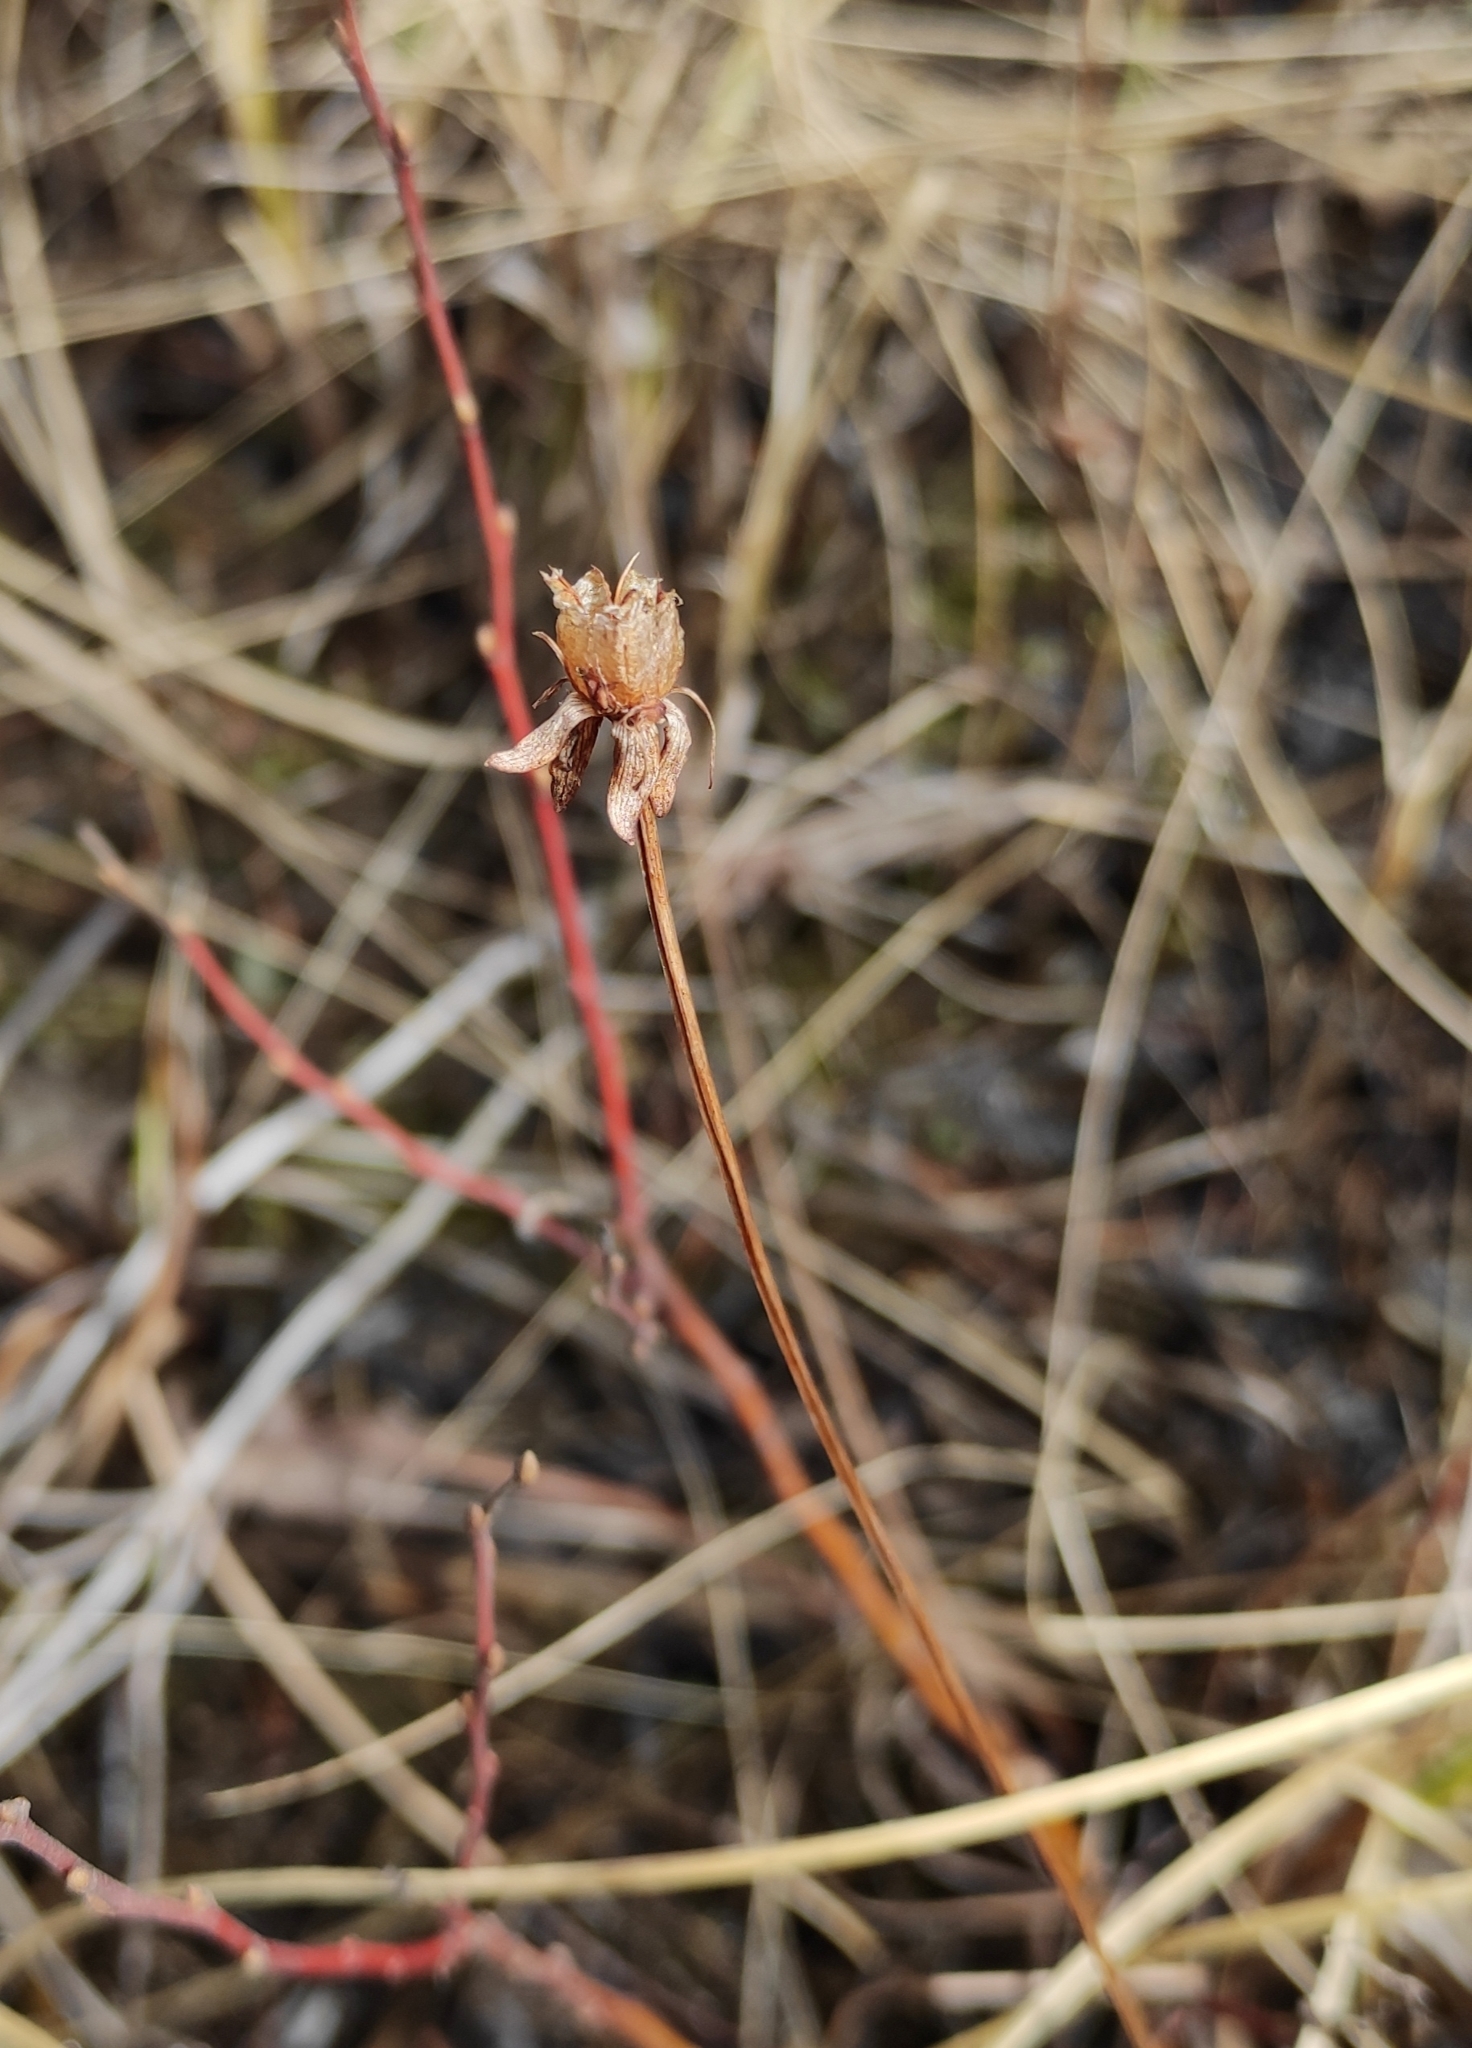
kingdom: Plantae
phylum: Tracheophyta
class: Magnoliopsida
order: Celastrales
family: Parnassiaceae
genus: Parnassia
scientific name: Parnassia palustris
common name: Grass-of-parnassus
